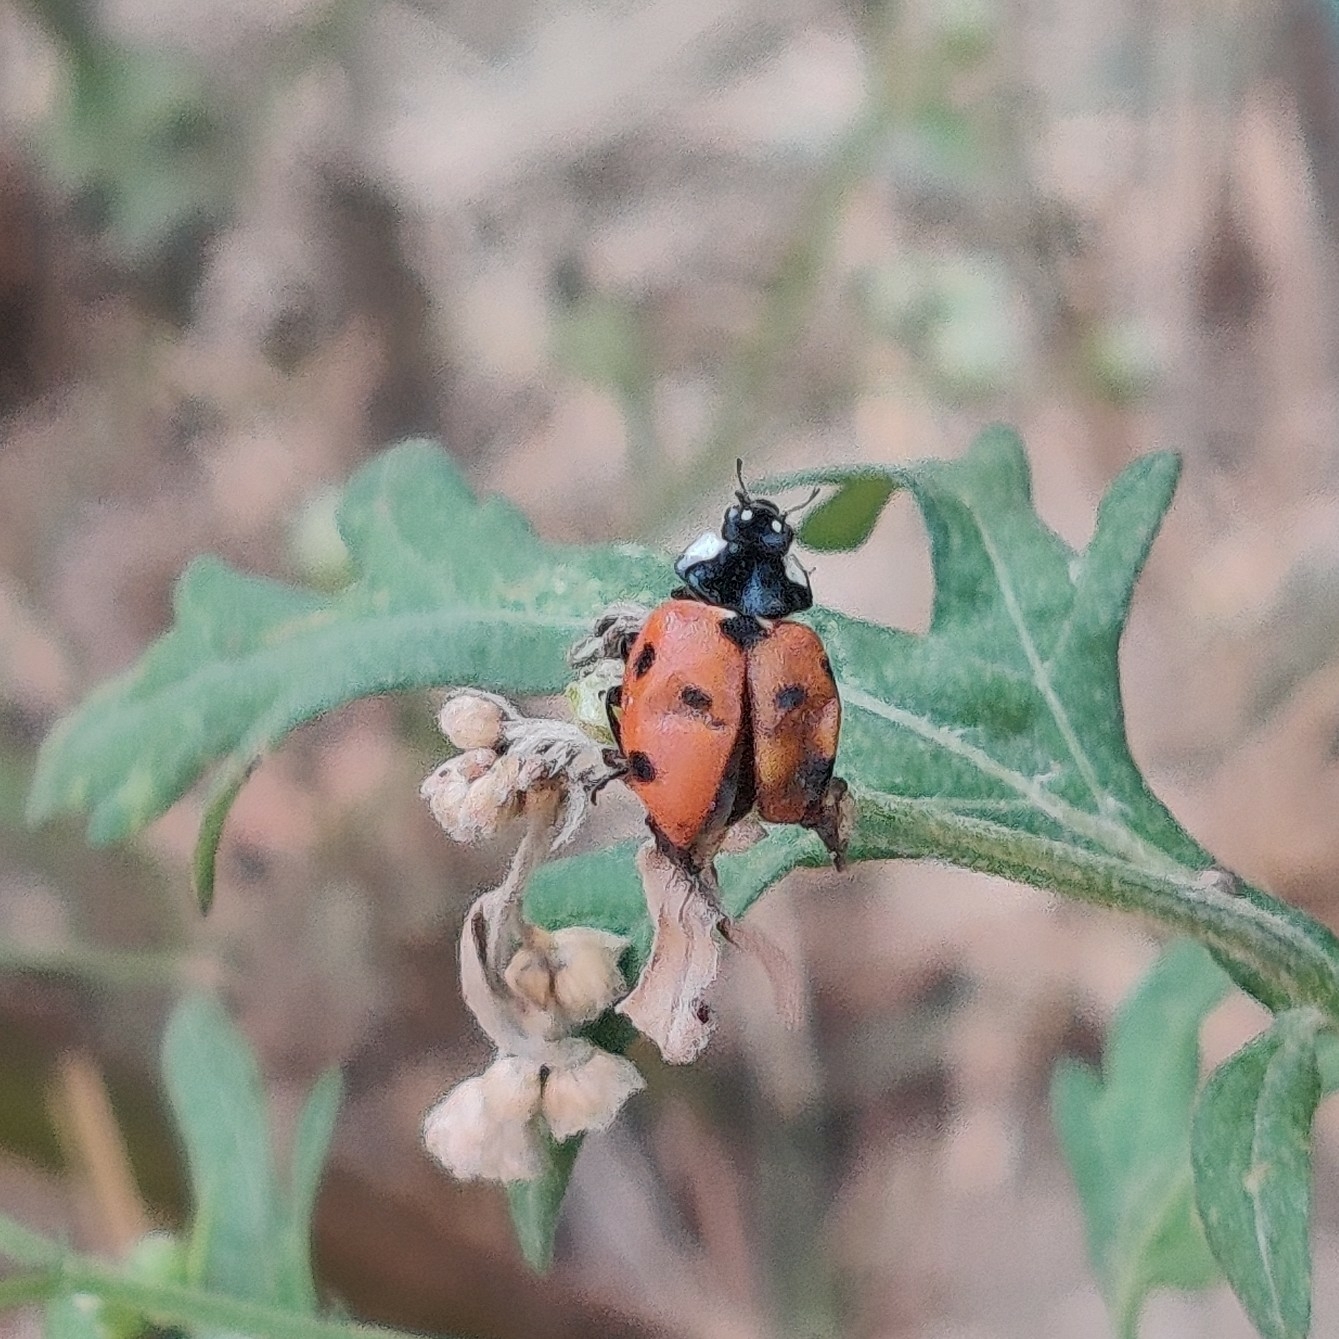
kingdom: Animalia
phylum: Arthropoda
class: Insecta
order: Coleoptera
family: Coccinellidae
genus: Coccinella
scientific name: Coccinella septempunctata
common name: Sevenspotted lady beetle
